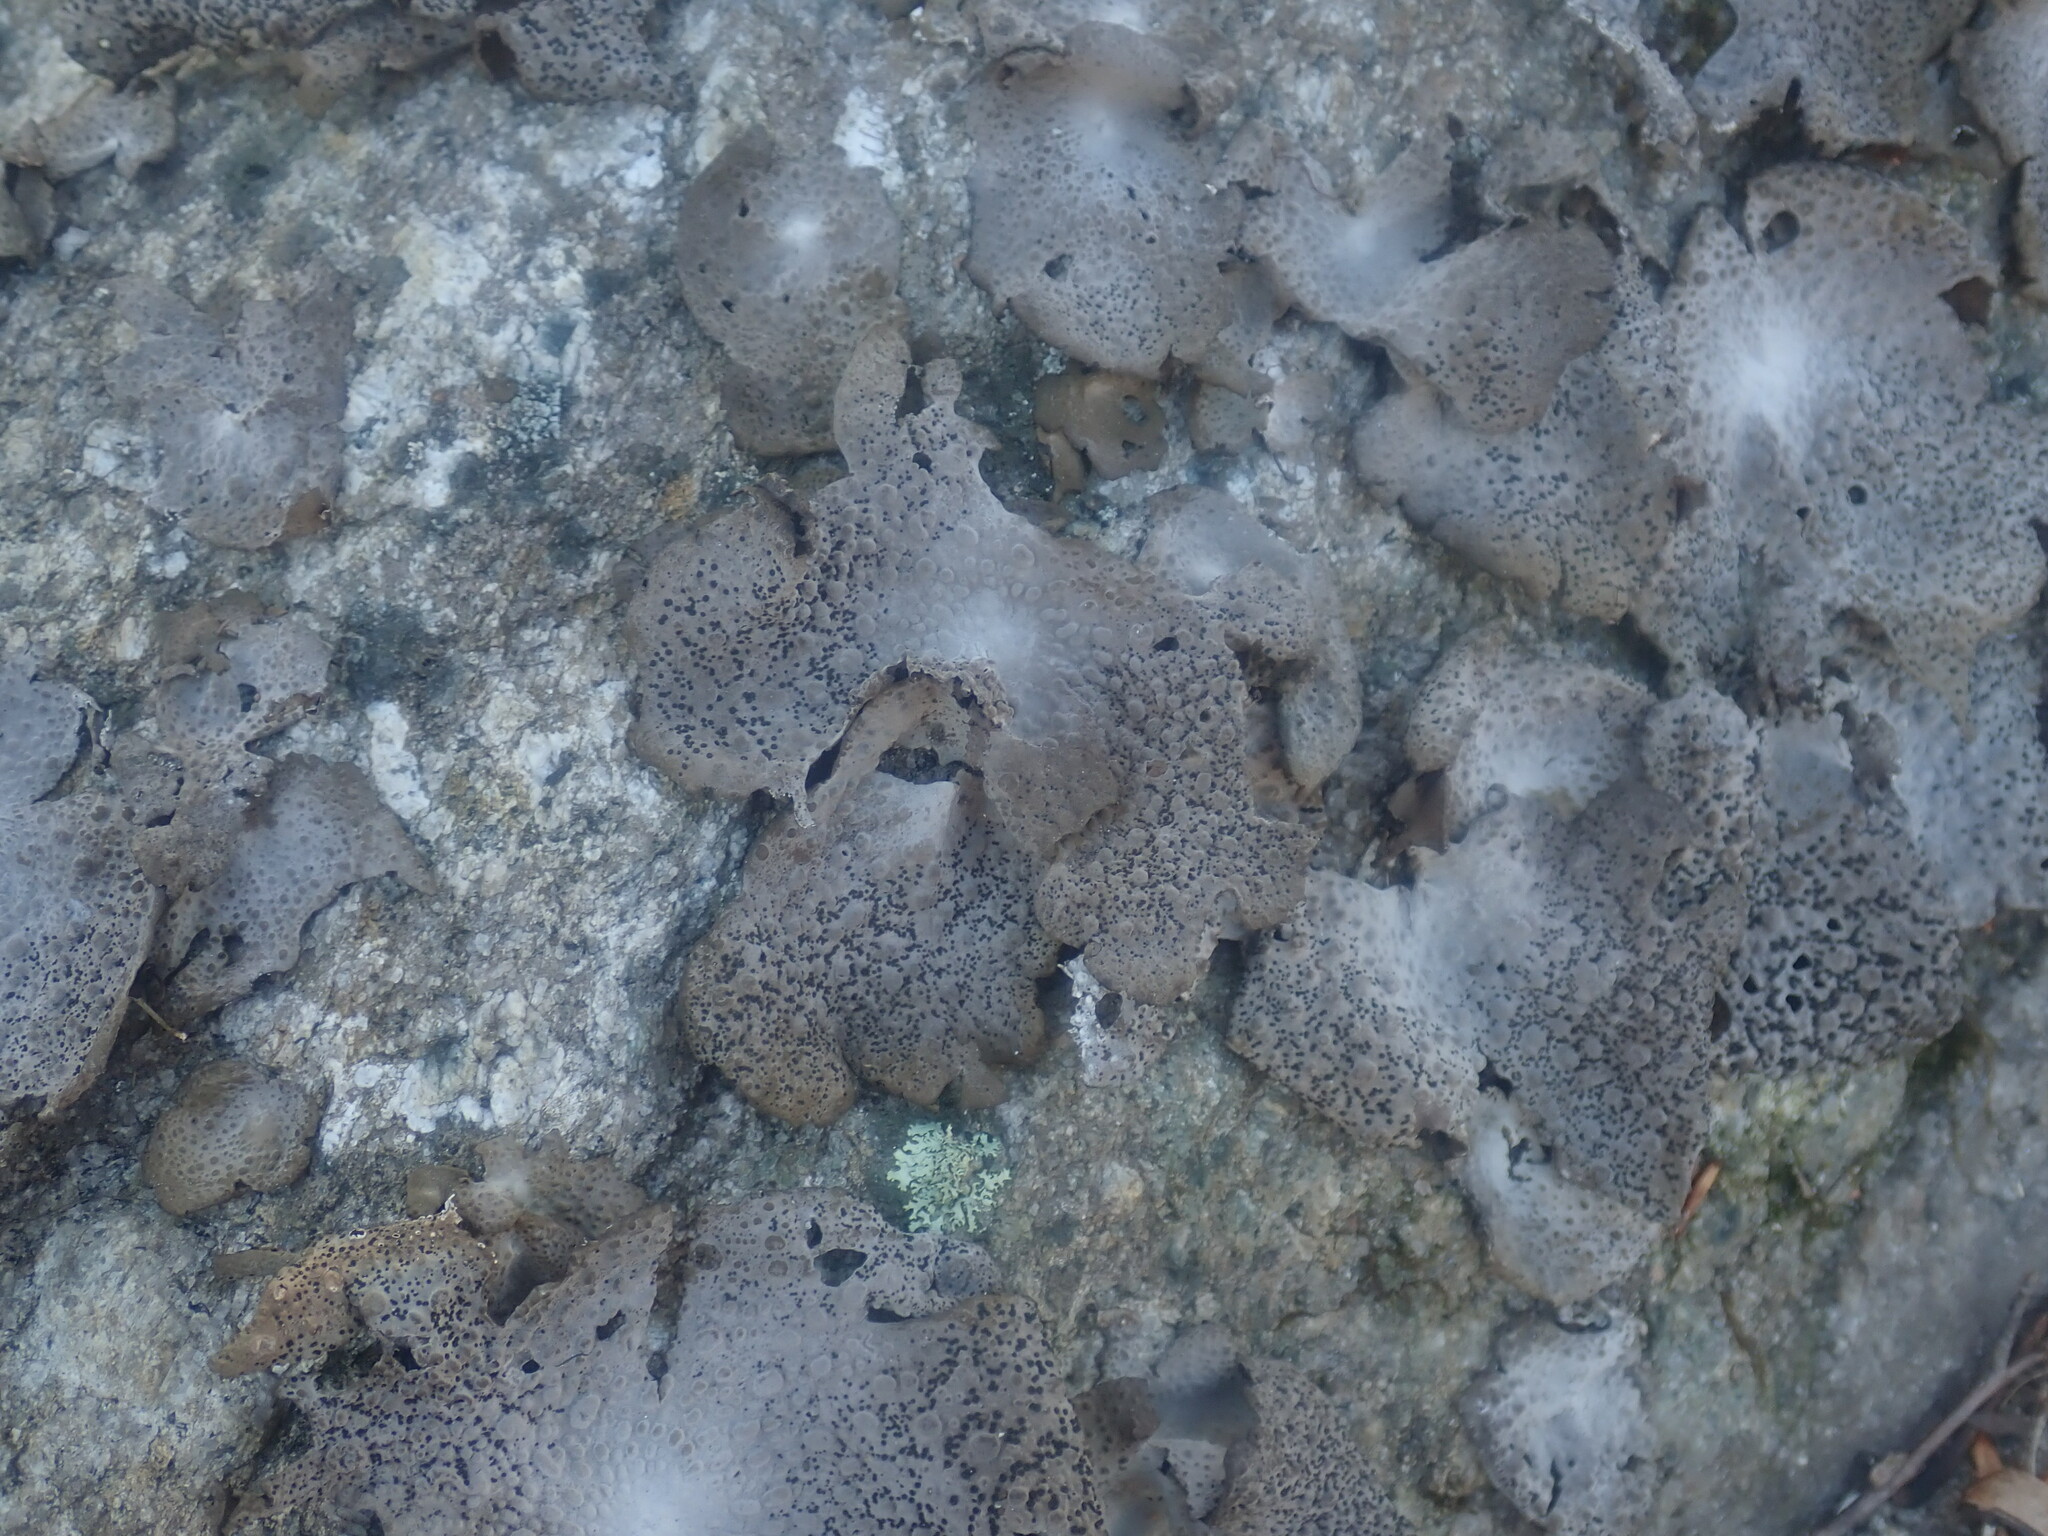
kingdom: Fungi
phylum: Ascomycota
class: Lecanoromycetes
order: Umbilicariales
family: Umbilicariaceae
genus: Lasallia
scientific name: Lasallia papulosa
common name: Common toadskin lichen
